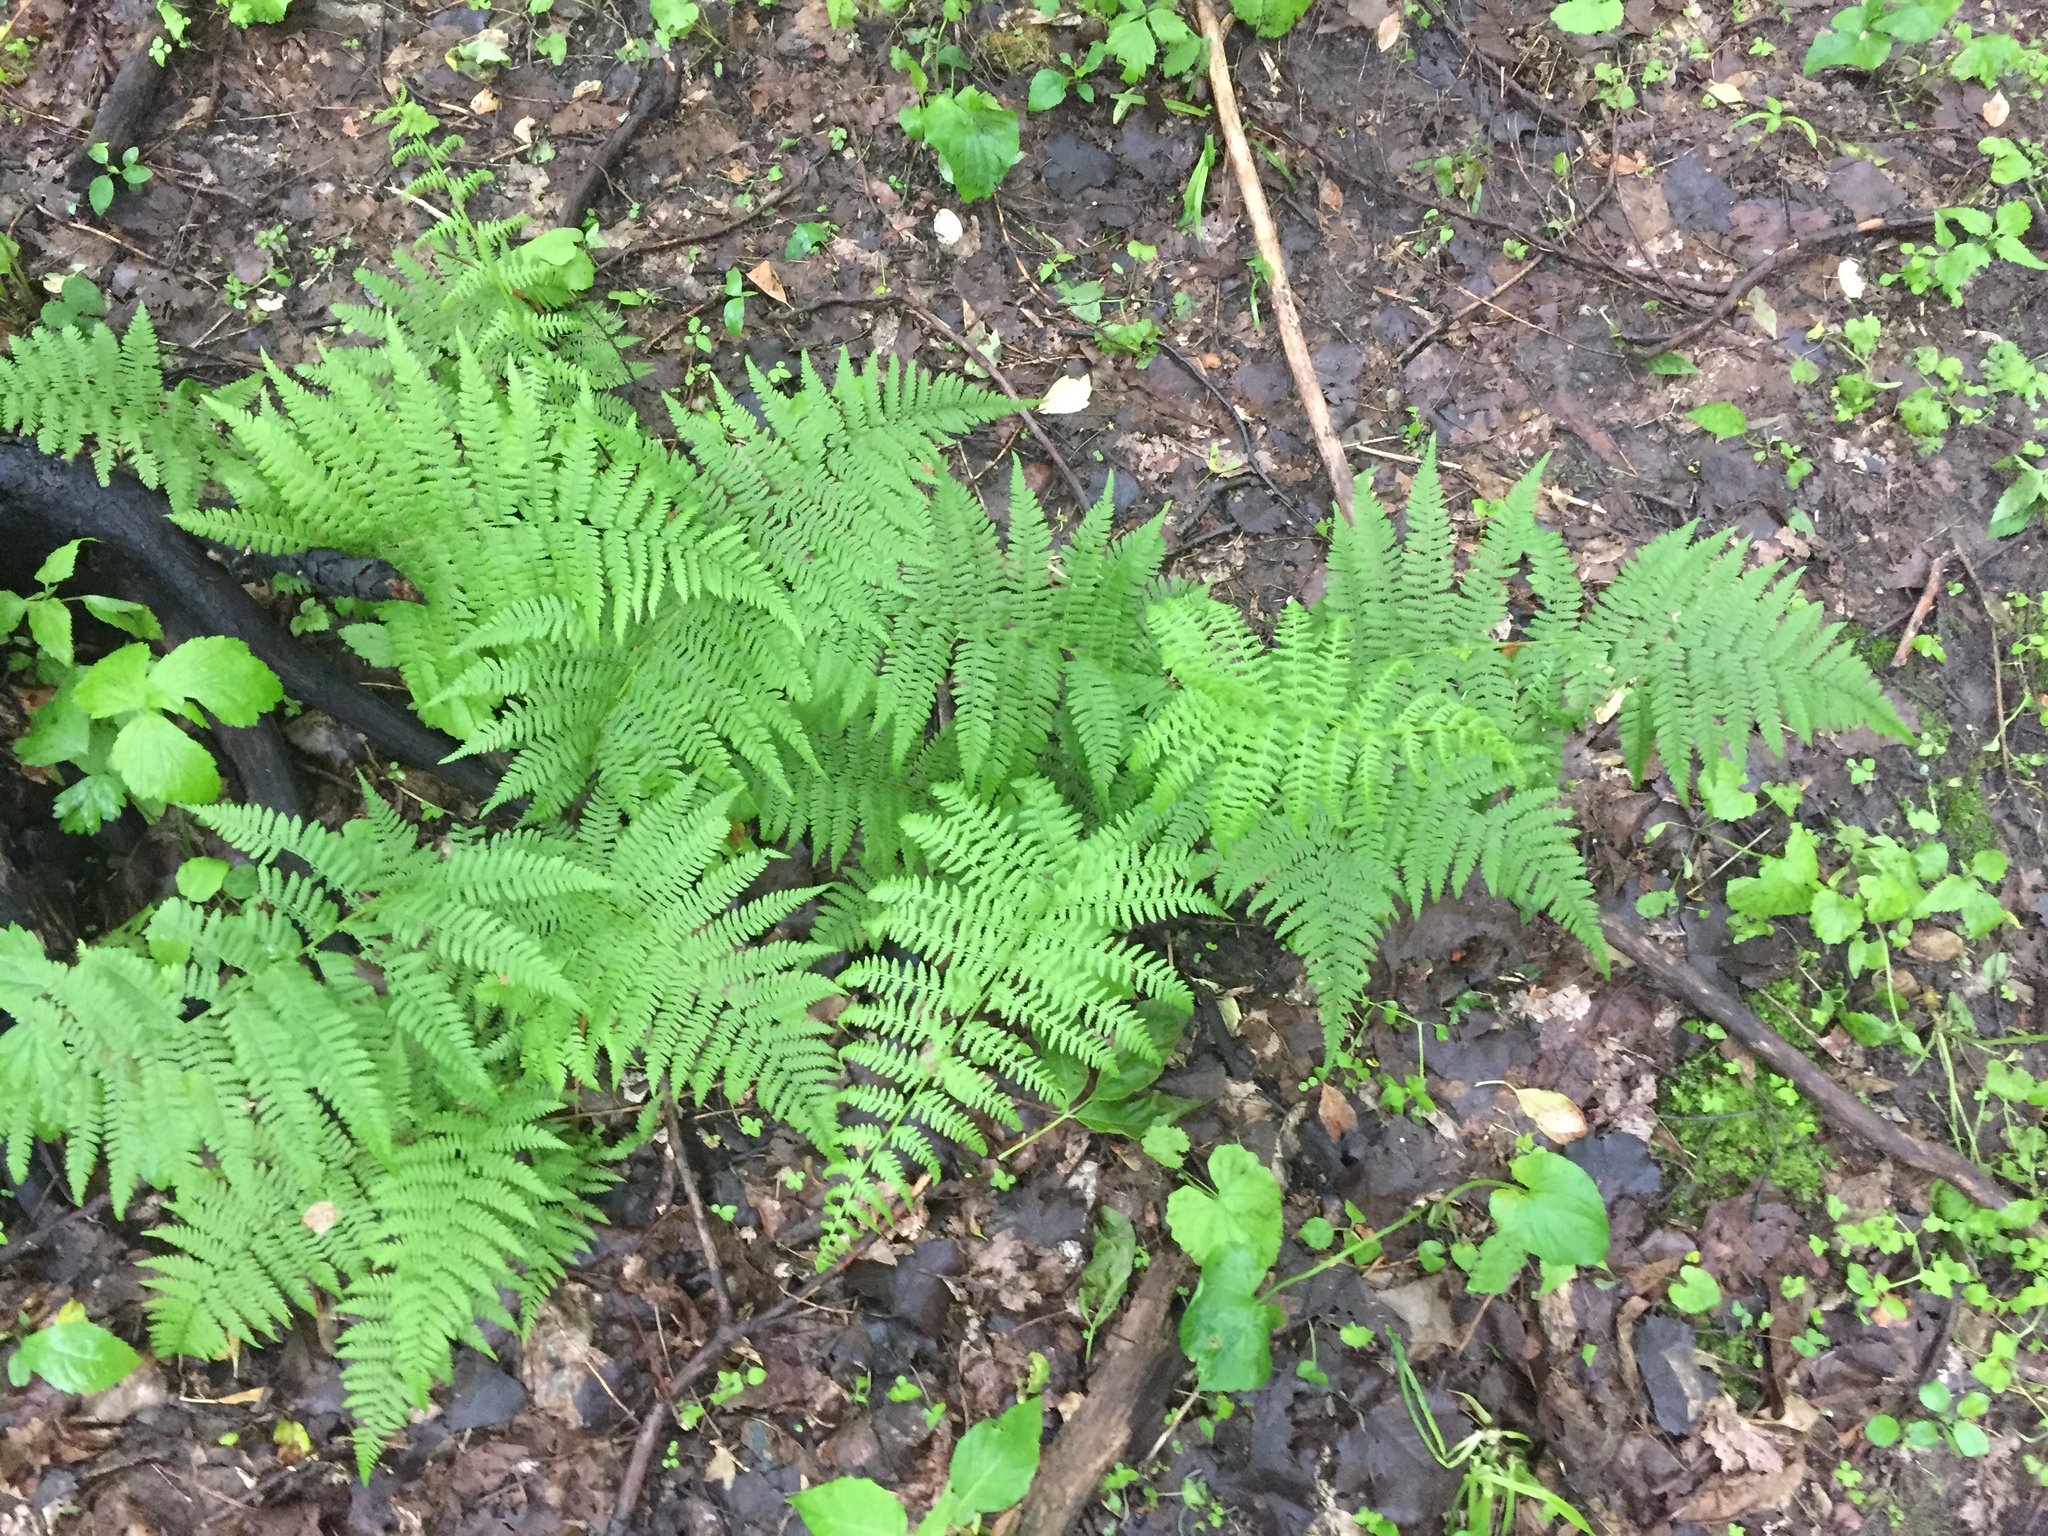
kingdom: Plantae
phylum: Tracheophyta
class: Polypodiopsida
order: Polypodiales
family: Athyriaceae
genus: Athyrium
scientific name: Athyrium angustum
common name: Northern lady fern
